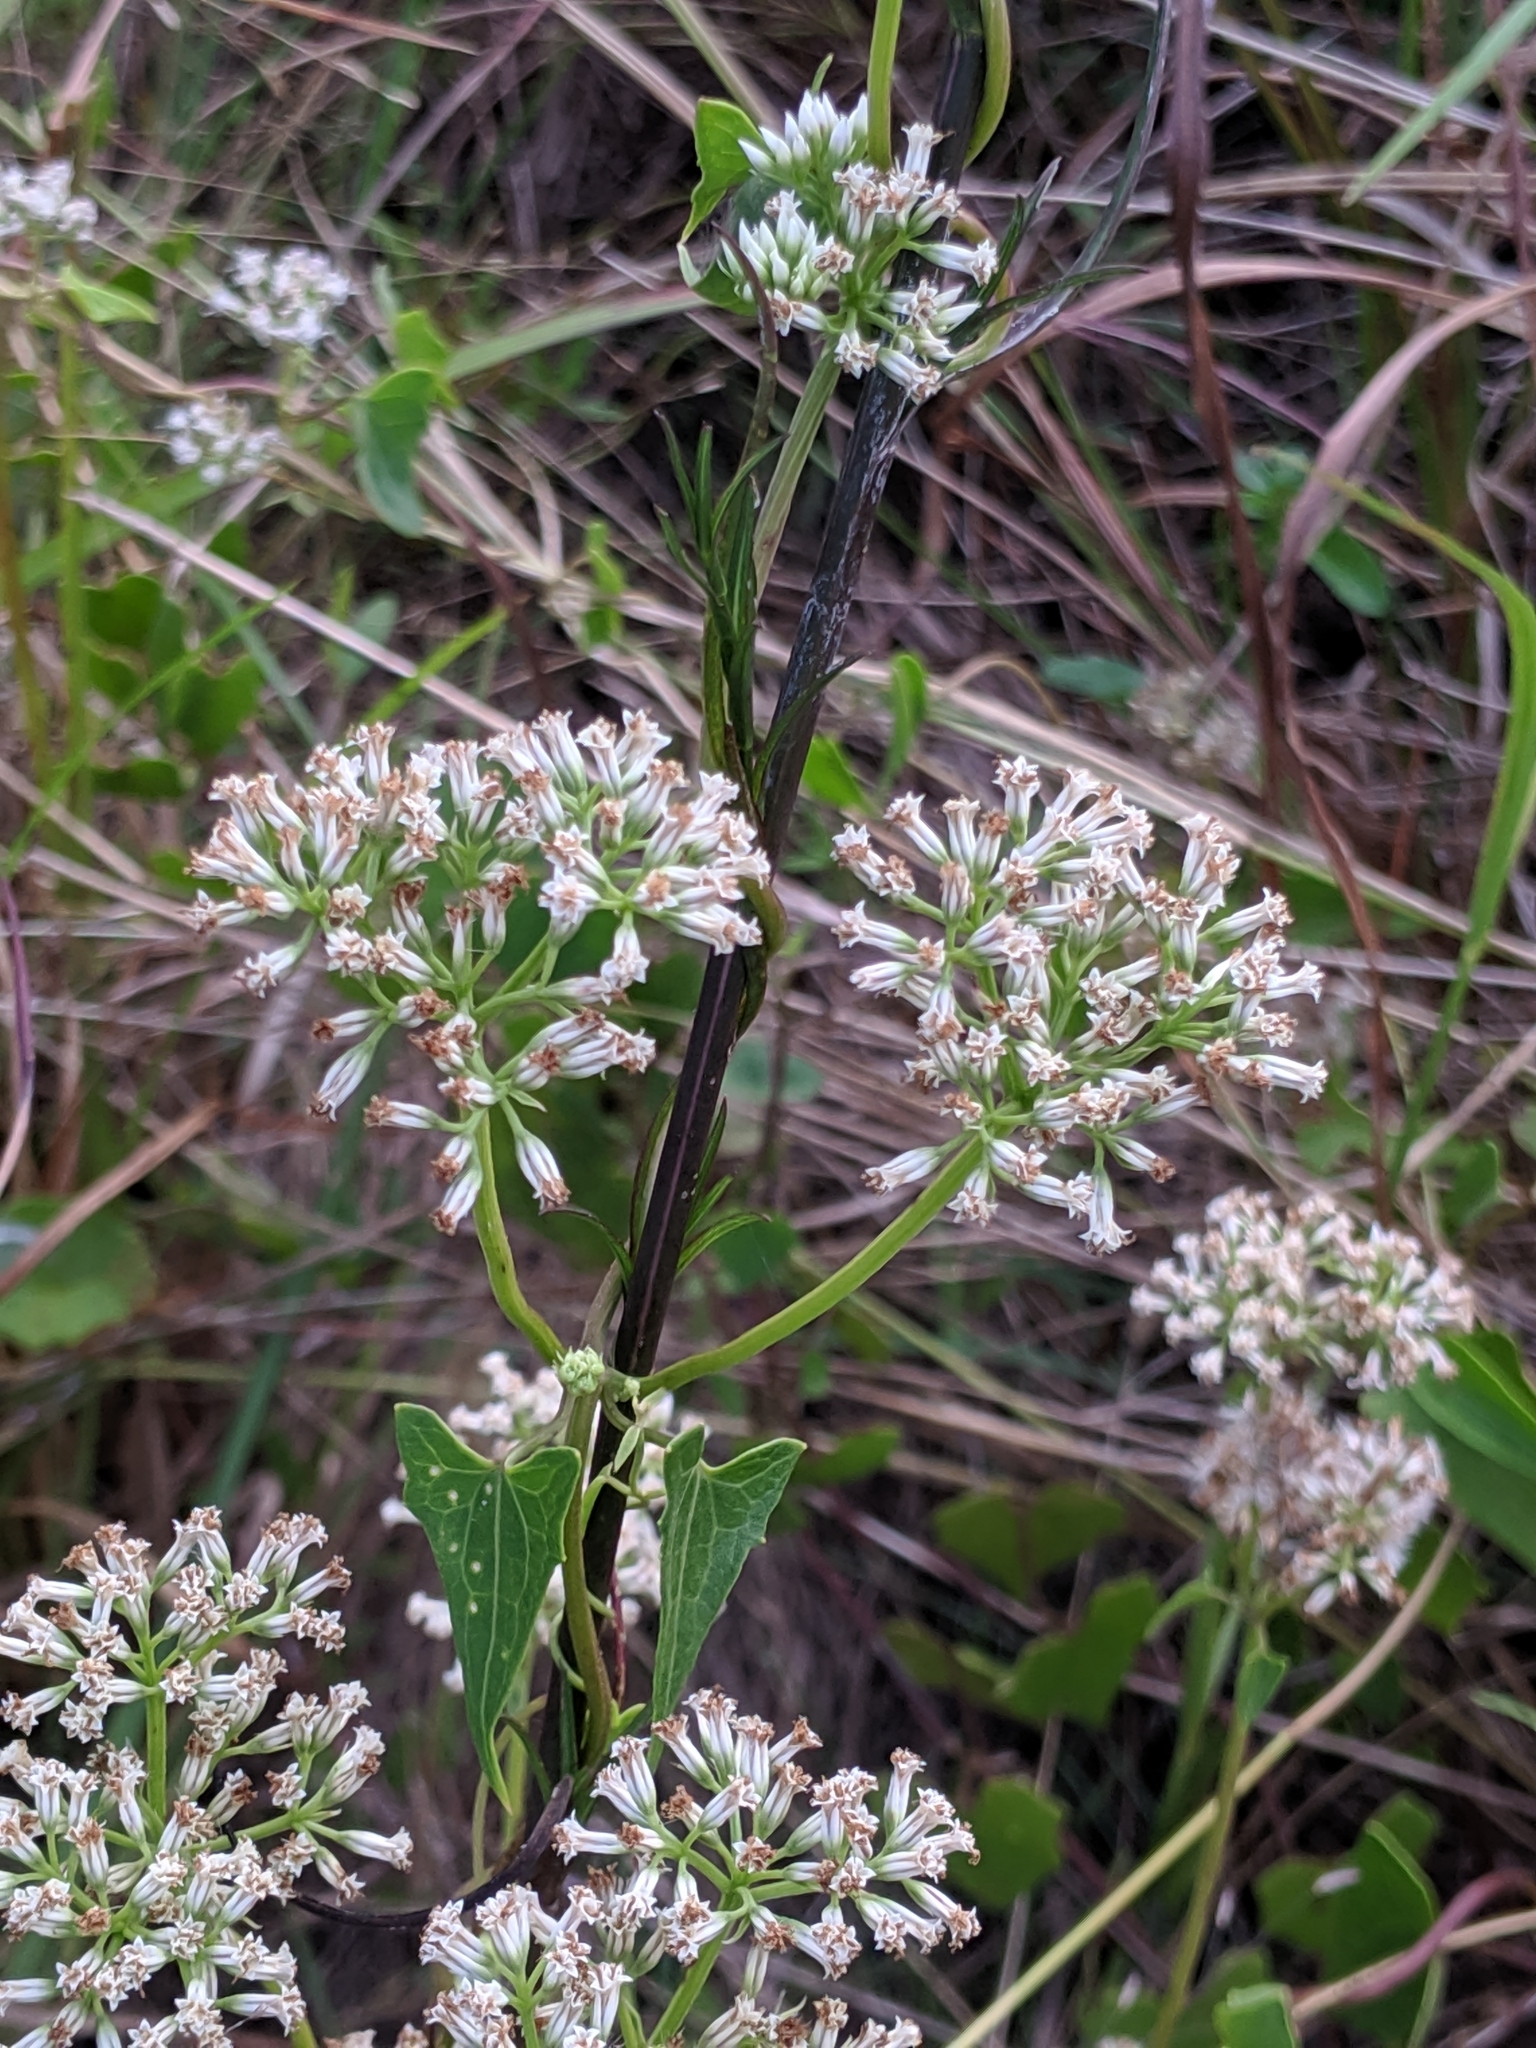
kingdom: Plantae
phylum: Tracheophyta
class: Magnoliopsida
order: Asterales
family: Asteraceae
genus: Mikania
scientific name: Mikania scandens
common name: Climbing hempvine
